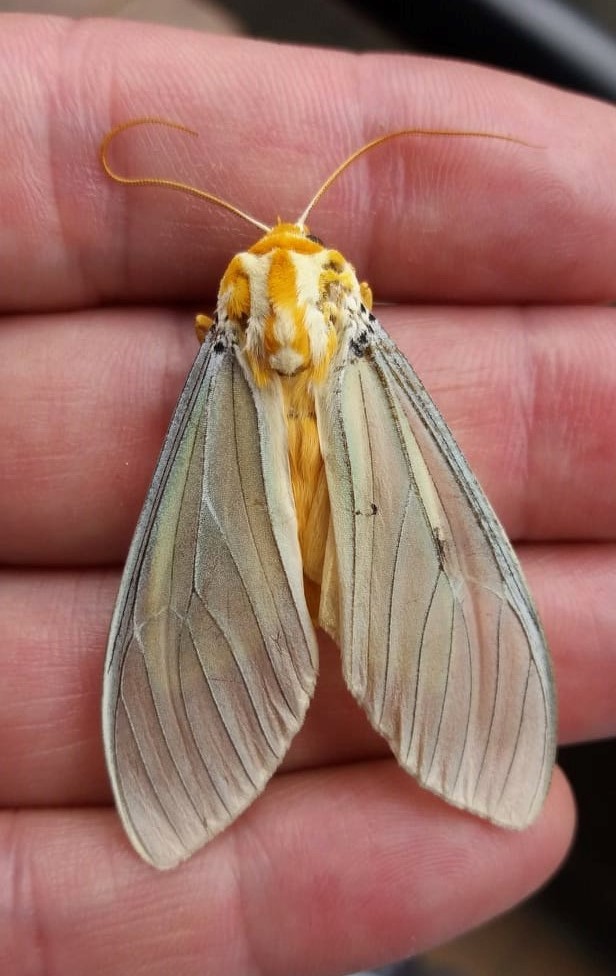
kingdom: Animalia
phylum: Arthropoda
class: Insecta
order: Lepidoptera
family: Erebidae
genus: Amastus
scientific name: Amastus thalassina
